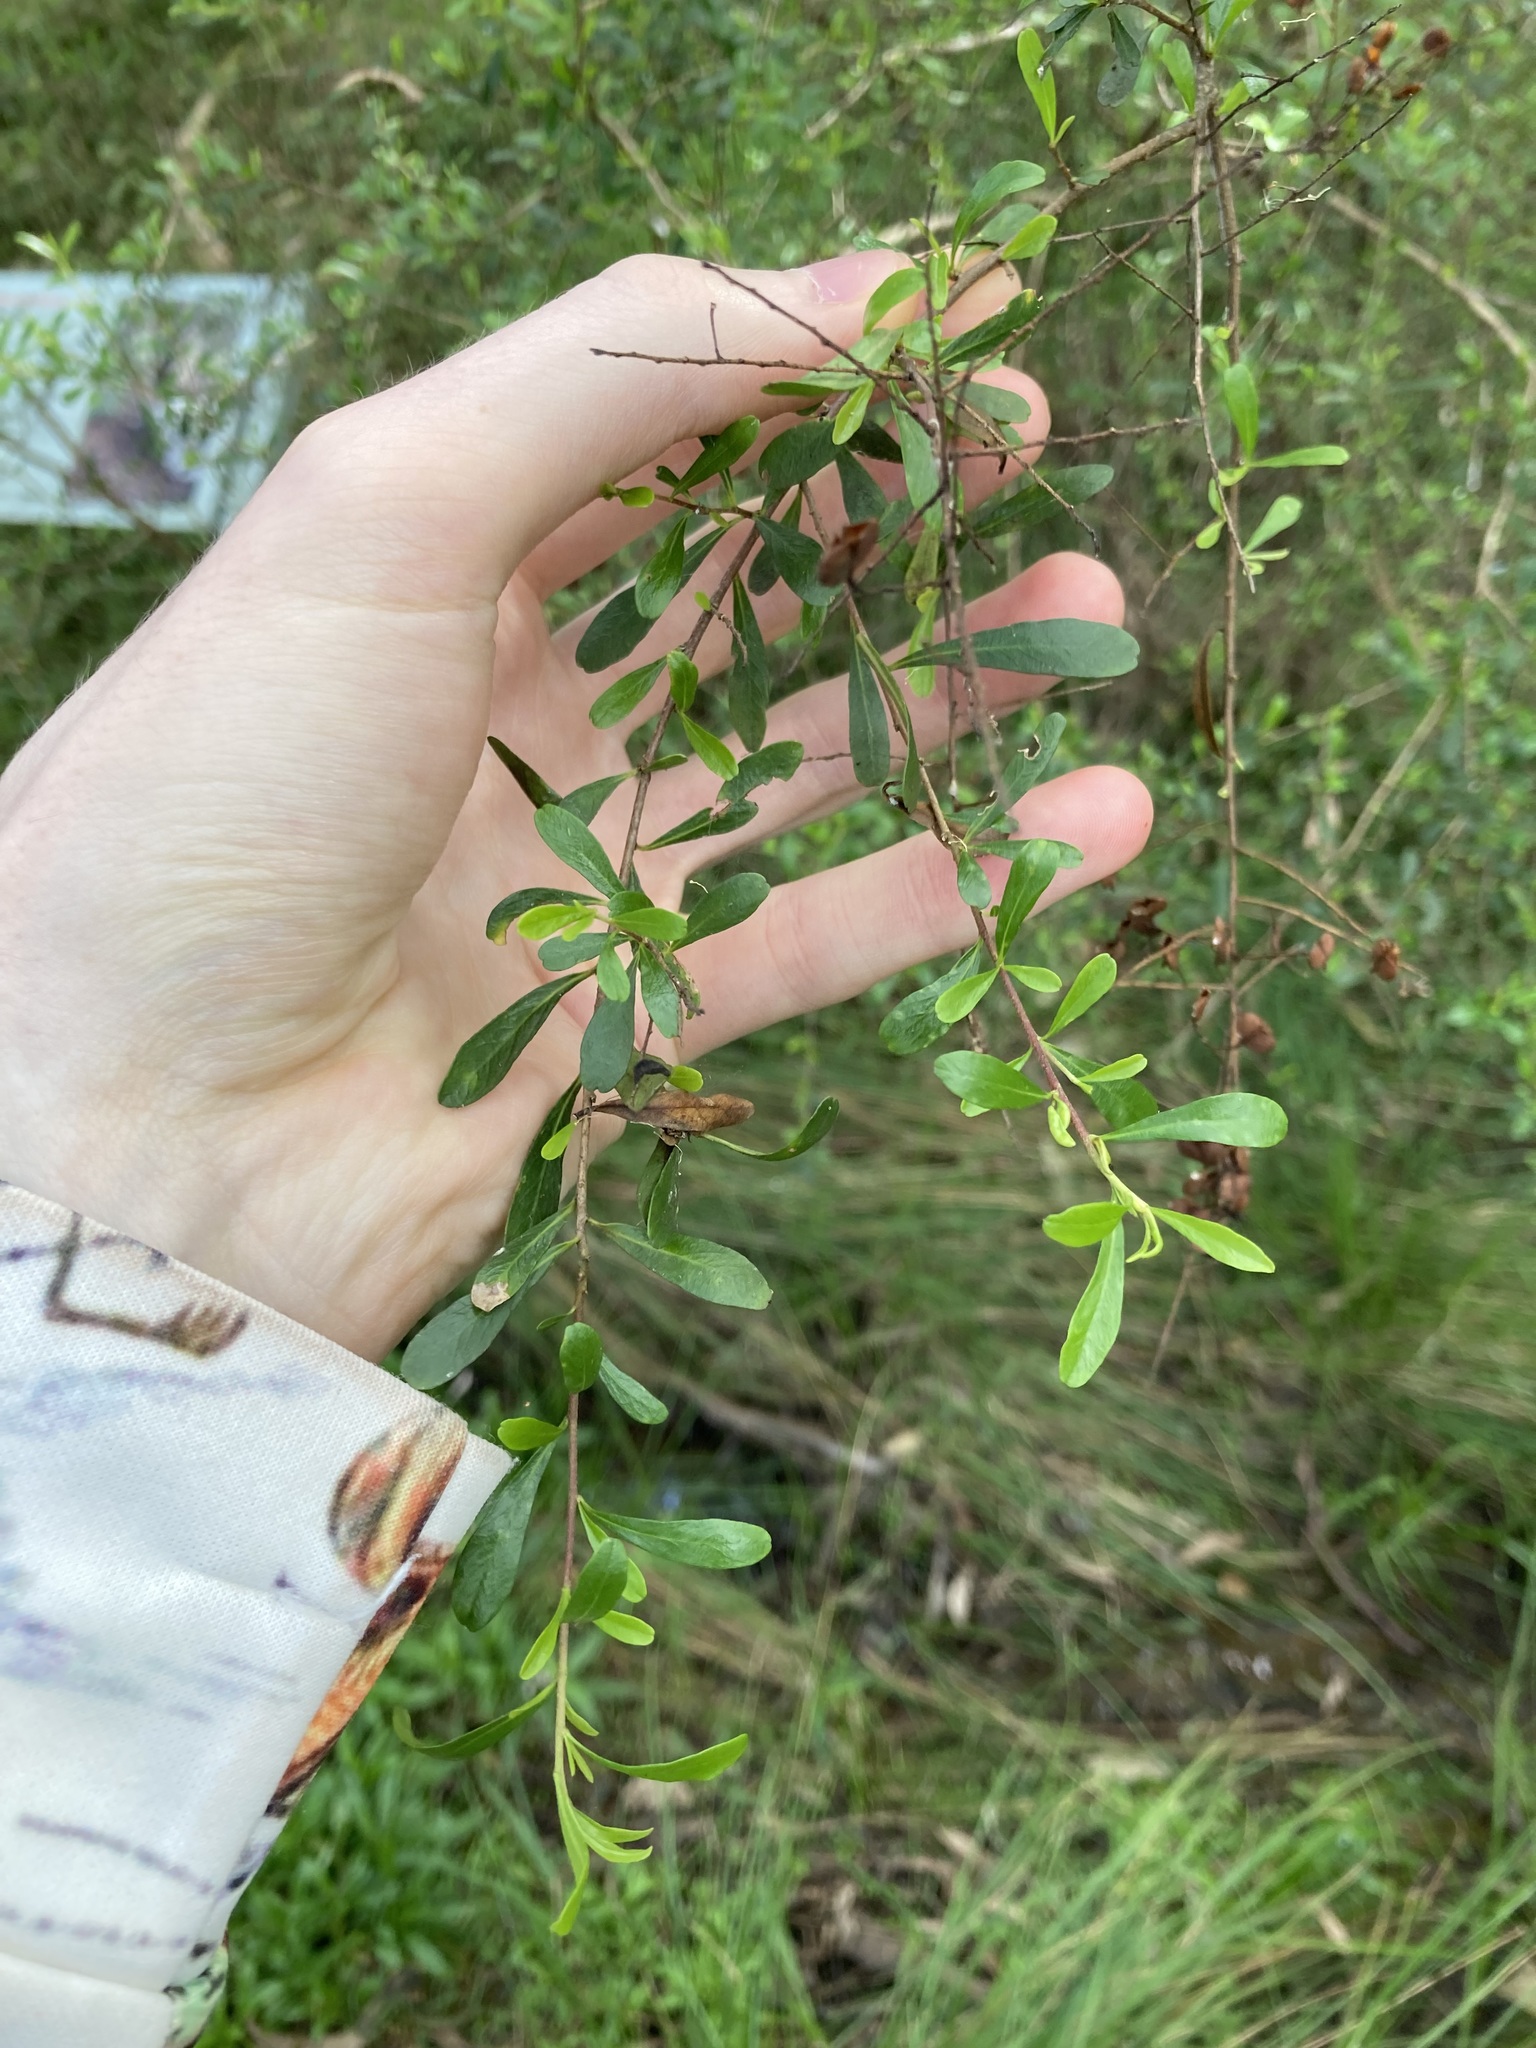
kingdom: Plantae
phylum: Tracheophyta
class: Magnoliopsida
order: Apiales
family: Pittosporaceae
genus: Bursaria
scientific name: Bursaria spinosa
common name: Australian blackthorn
